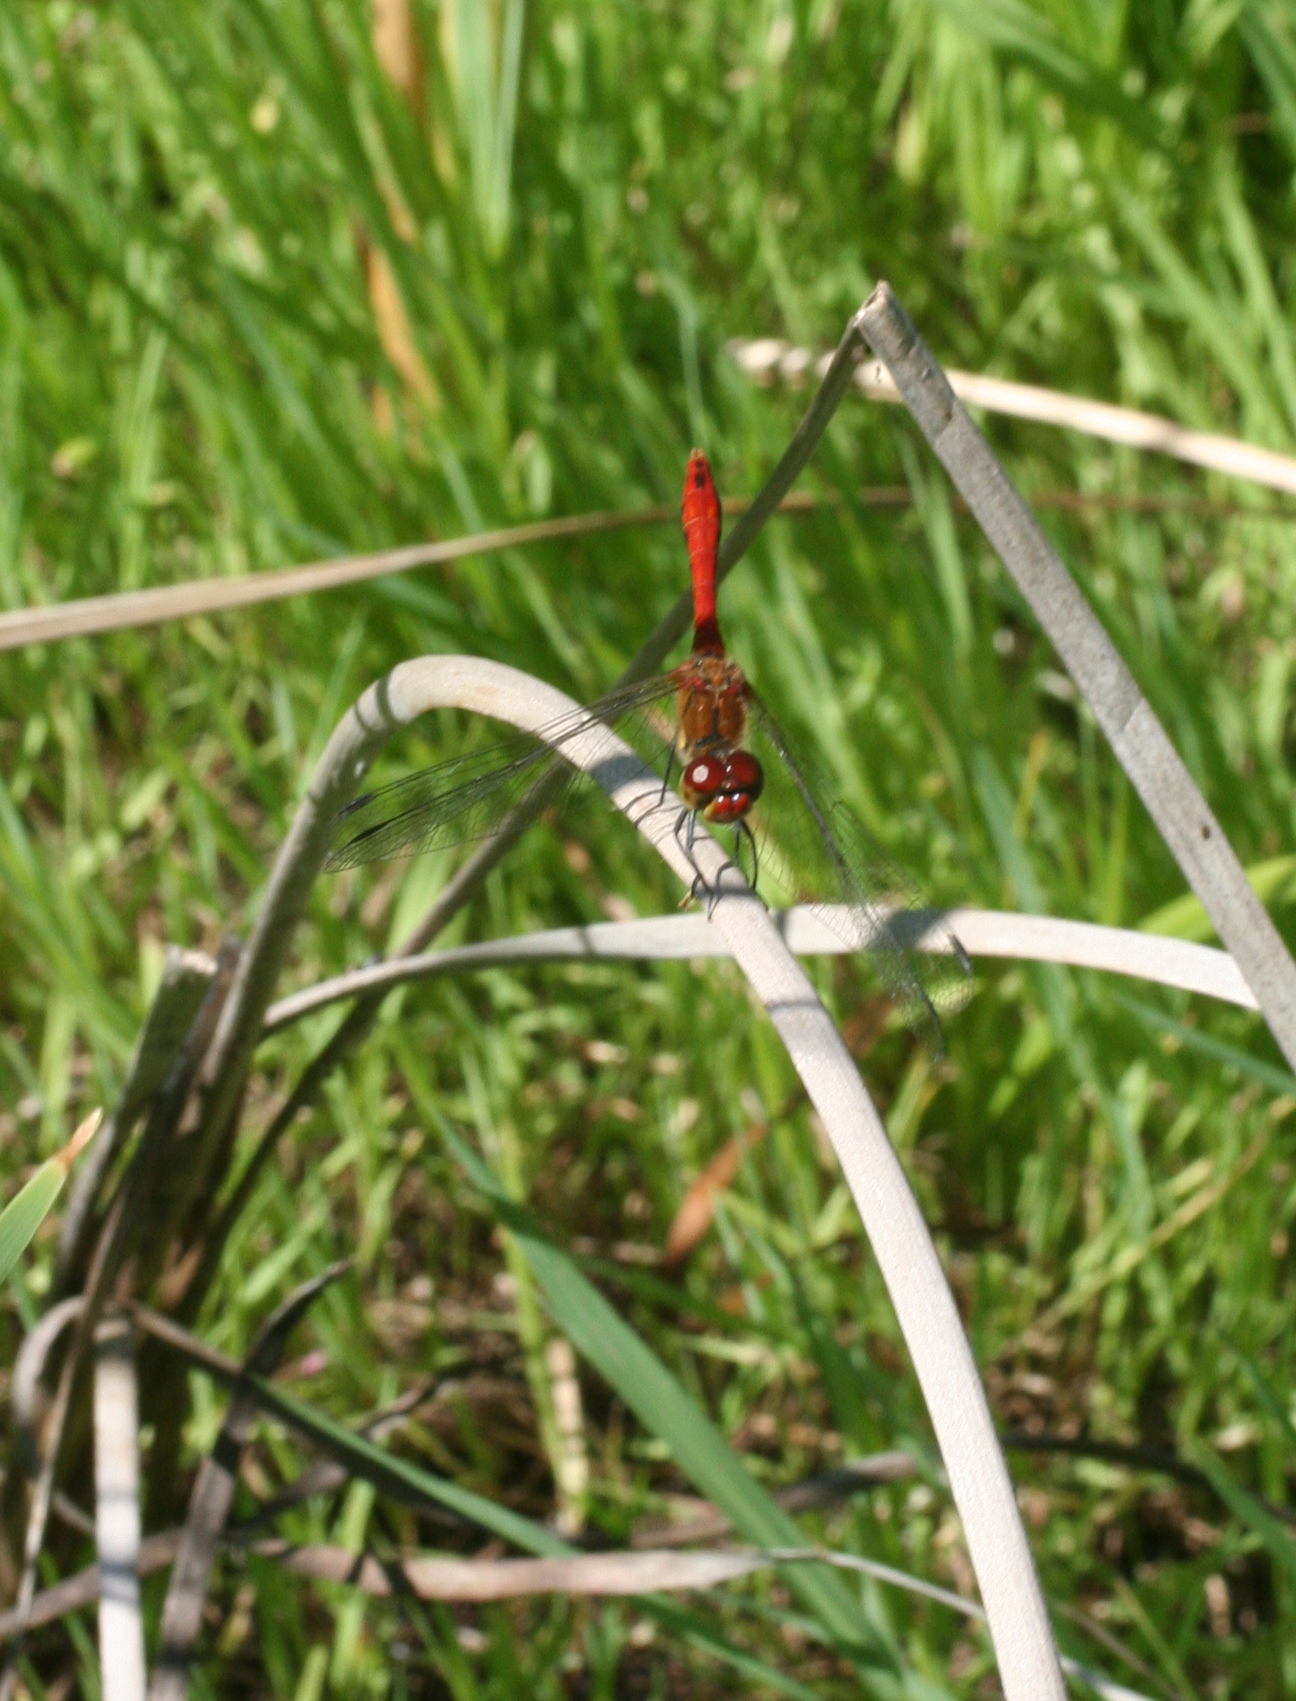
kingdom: Animalia
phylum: Arthropoda
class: Insecta
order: Odonata
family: Libellulidae
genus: Sympetrum
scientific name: Sympetrum sanguineum
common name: Ruddy darter
